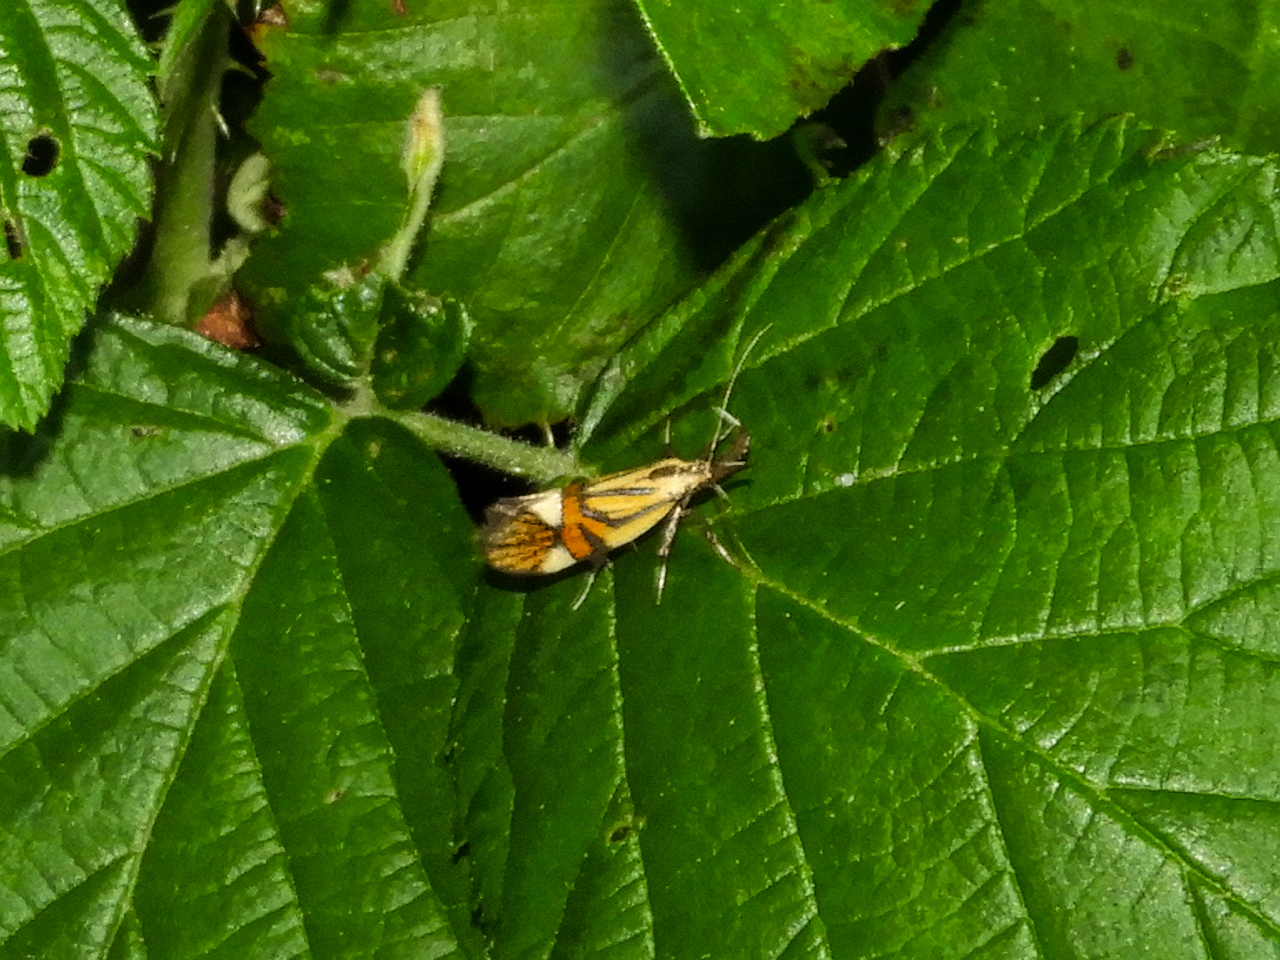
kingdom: Animalia
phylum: Arthropoda
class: Insecta
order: Lepidoptera
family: Oecophoridae
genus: Oecophora
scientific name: Oecophora Alabonia geoffrella
